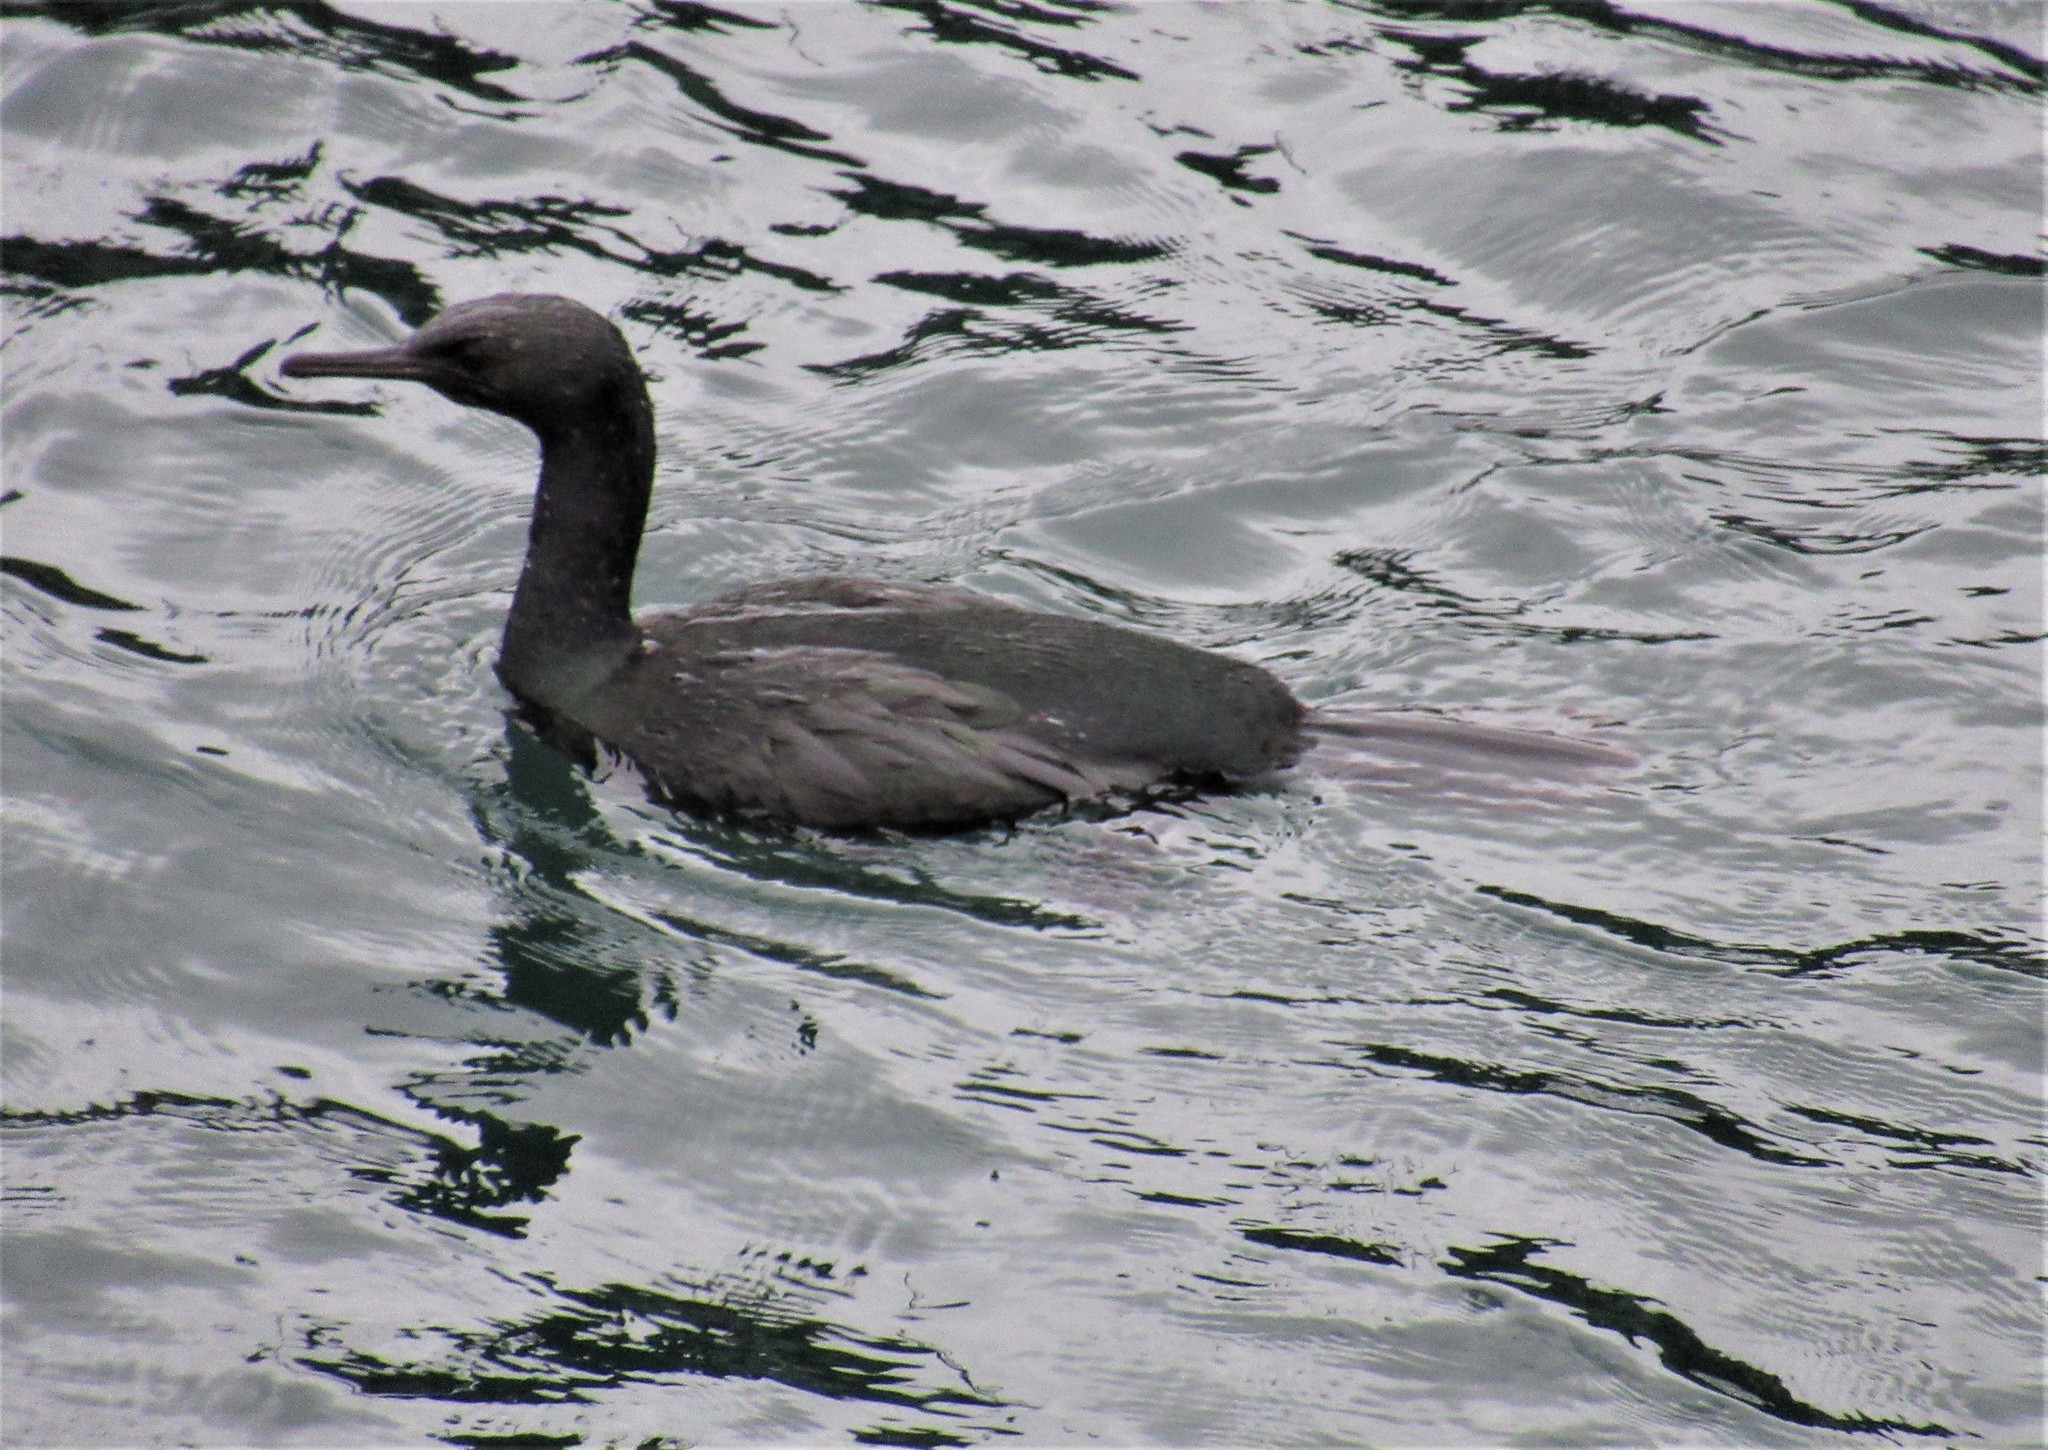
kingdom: Animalia
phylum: Chordata
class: Aves
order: Suliformes
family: Phalacrocoracidae
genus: Phalacrocorax
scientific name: Phalacrocorax pelagicus
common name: Pelagic cormorant
